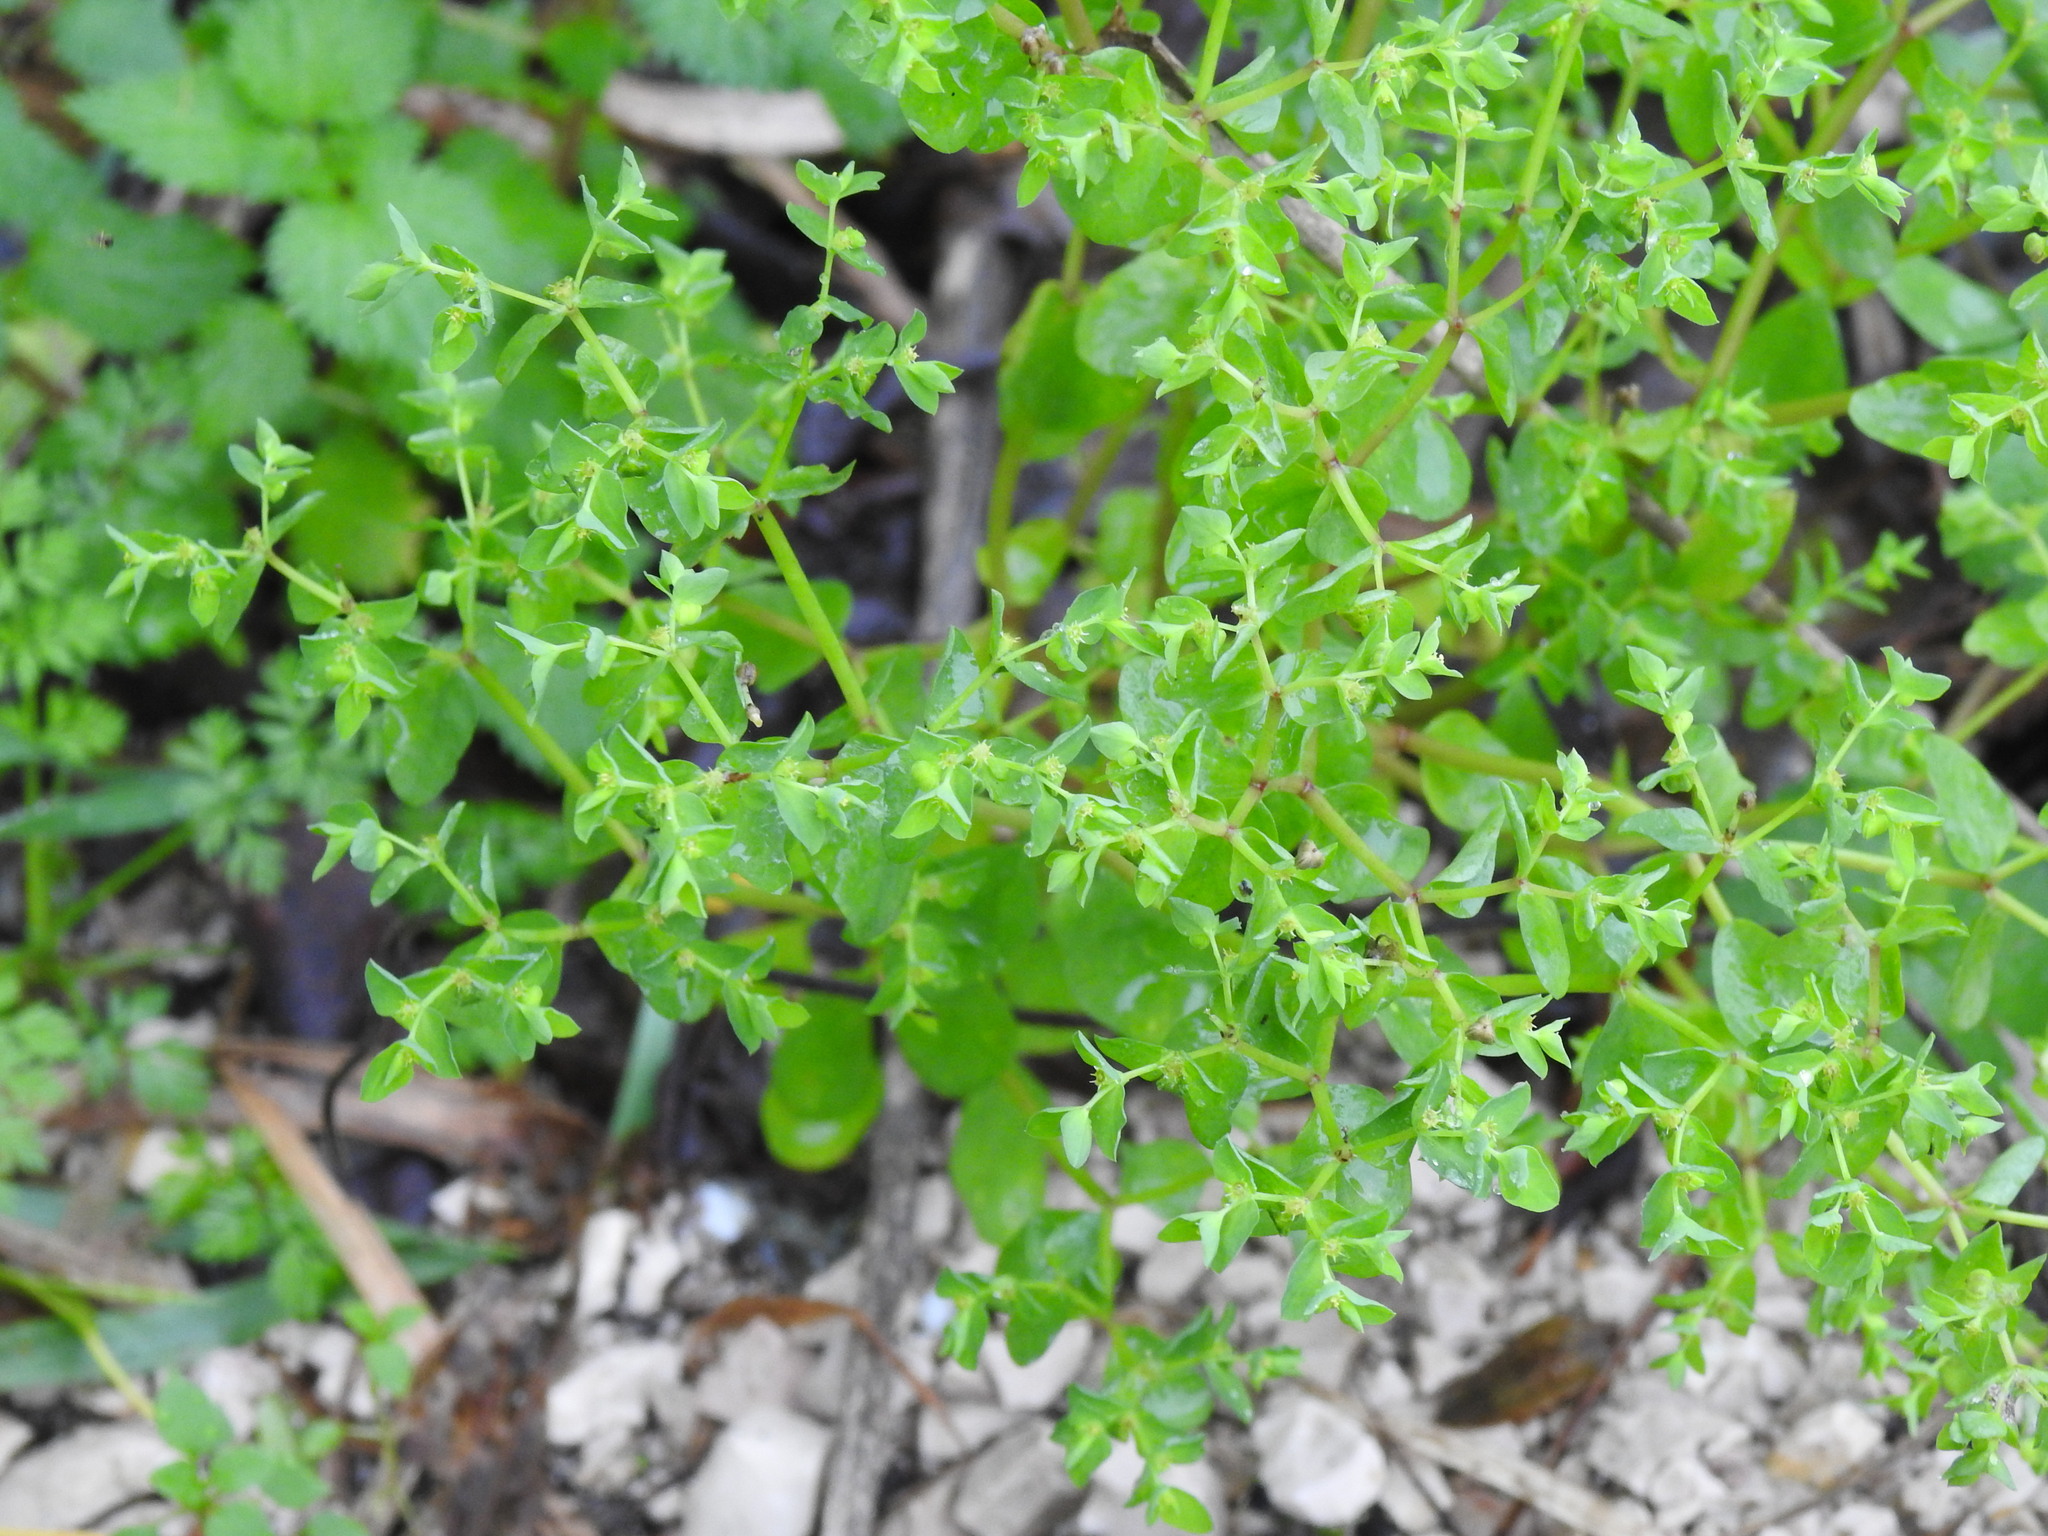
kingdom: Plantae
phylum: Tracheophyta
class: Magnoliopsida
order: Malpighiales
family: Euphorbiaceae
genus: Euphorbia
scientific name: Euphorbia peplus
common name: Petty spurge
